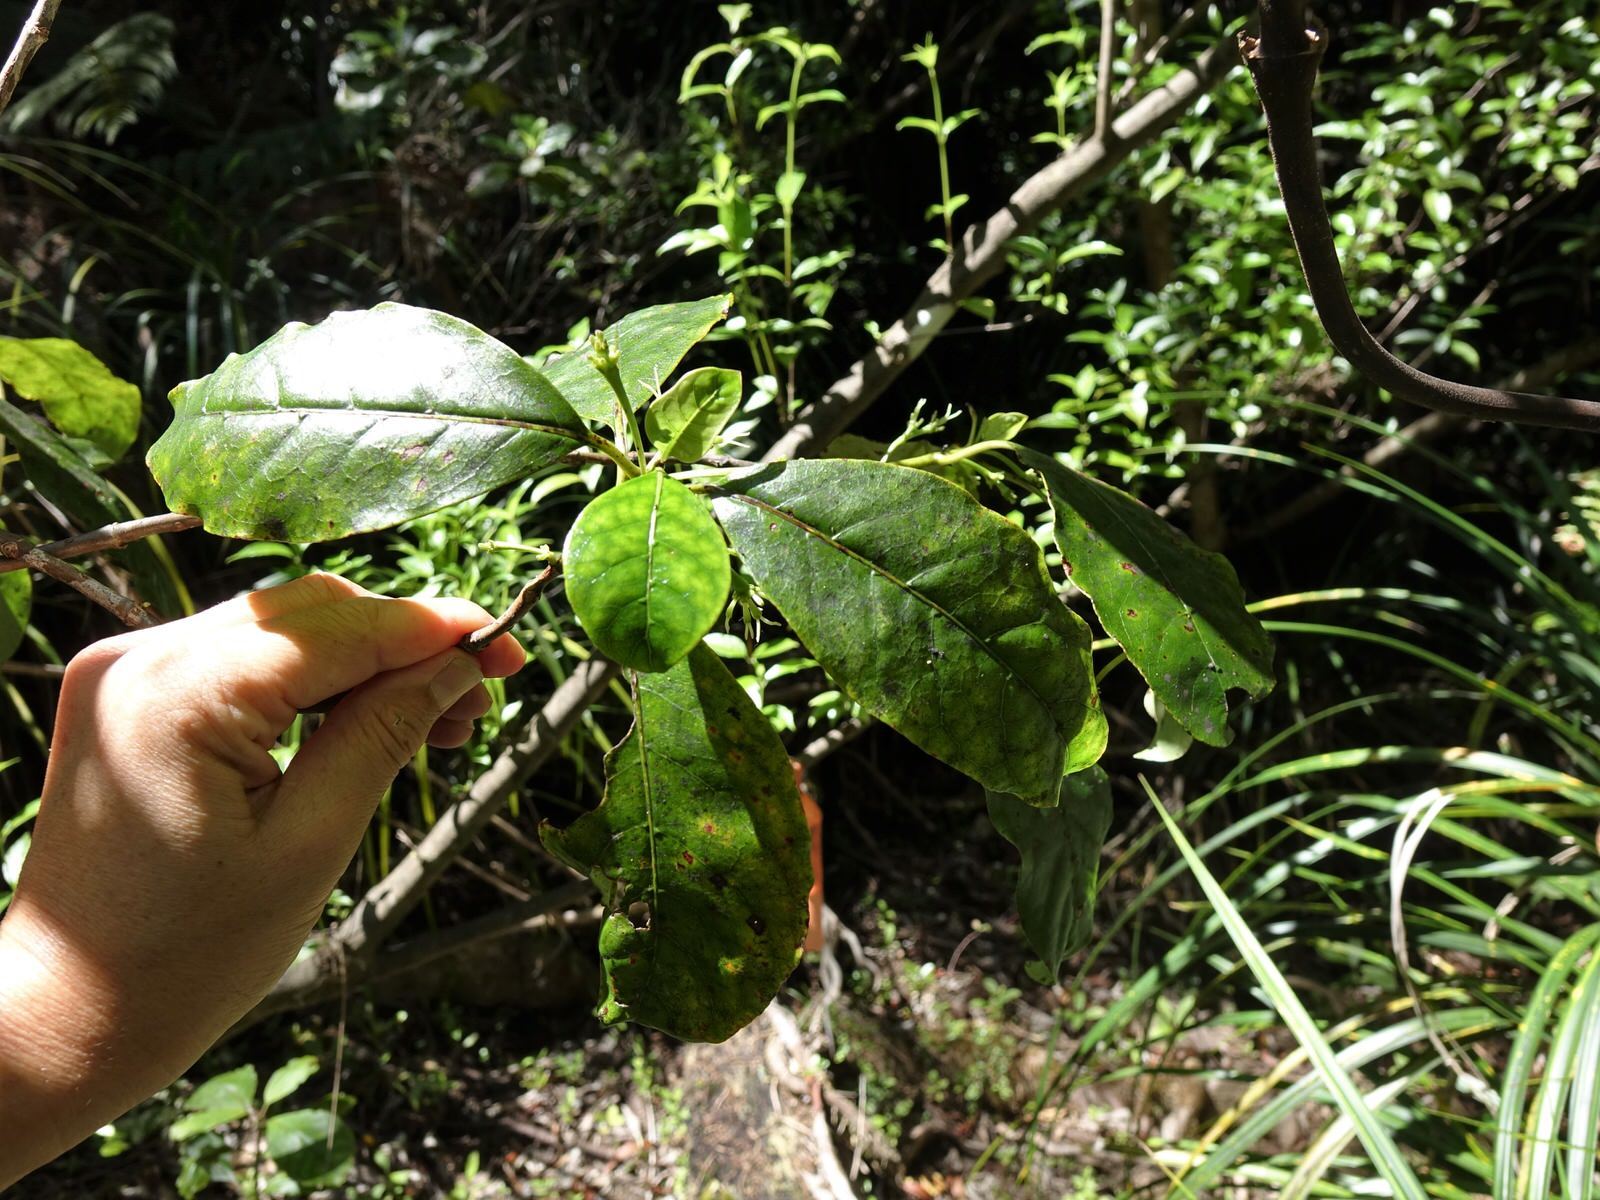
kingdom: Plantae
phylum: Tracheophyta
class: Magnoliopsida
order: Gentianales
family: Rubiaceae
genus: Coprosma
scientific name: Coprosma autumnalis
